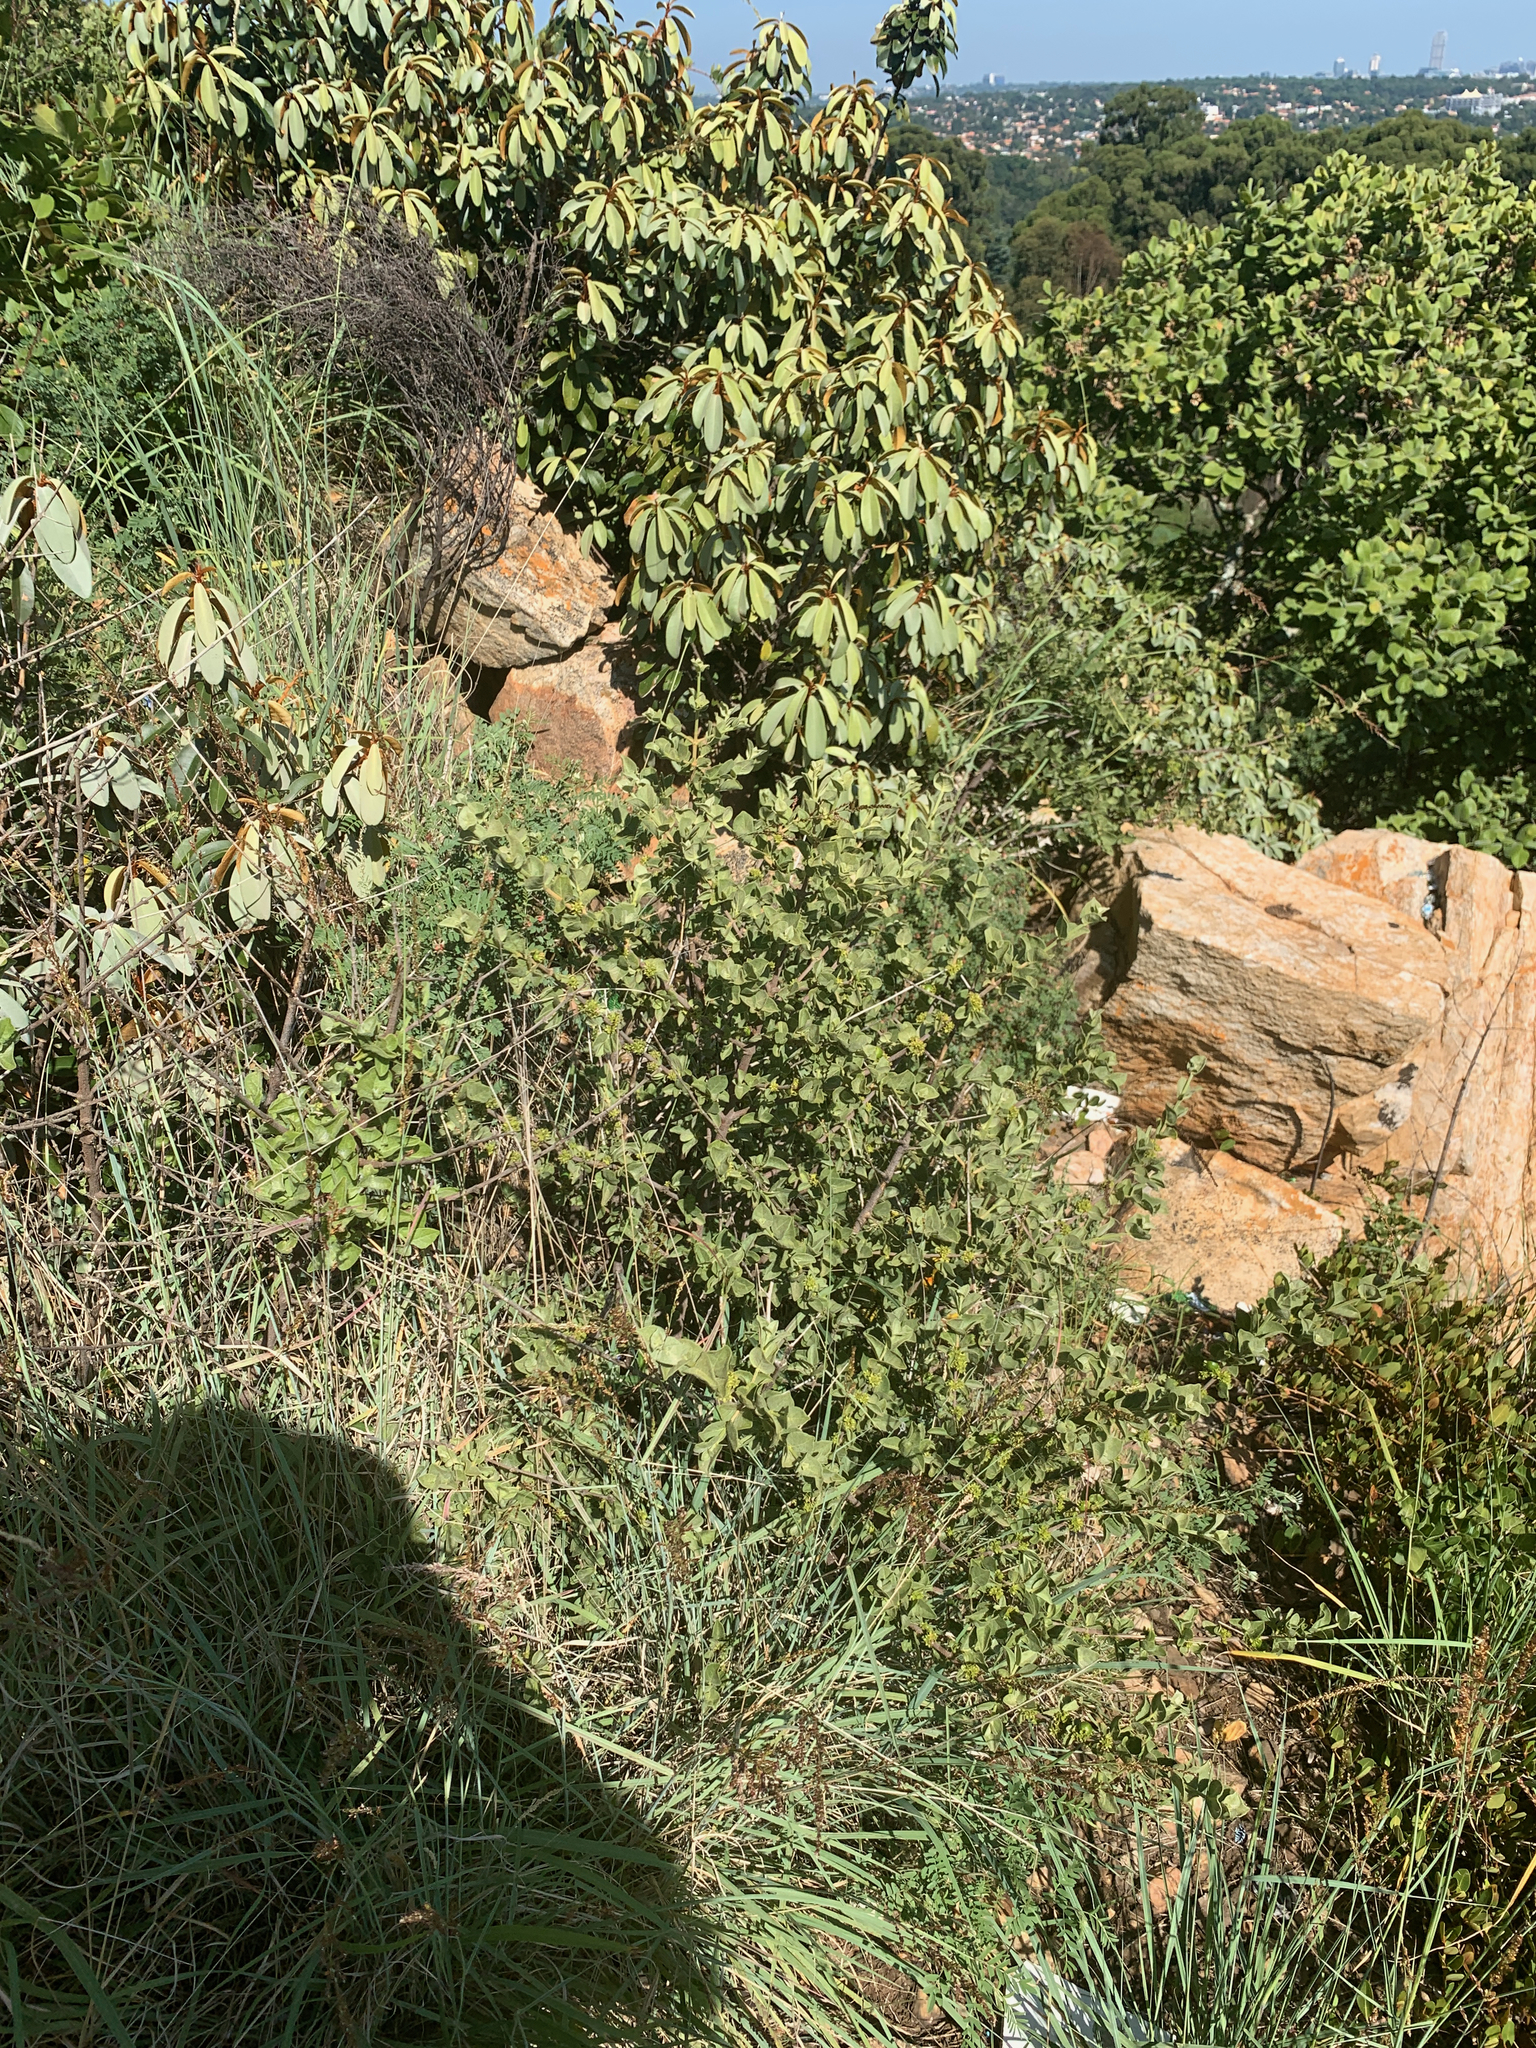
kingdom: Plantae
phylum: Tracheophyta
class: Magnoliopsida
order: Gentianales
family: Rubiaceae
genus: Vangueria
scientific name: Vangueria parvifolia
